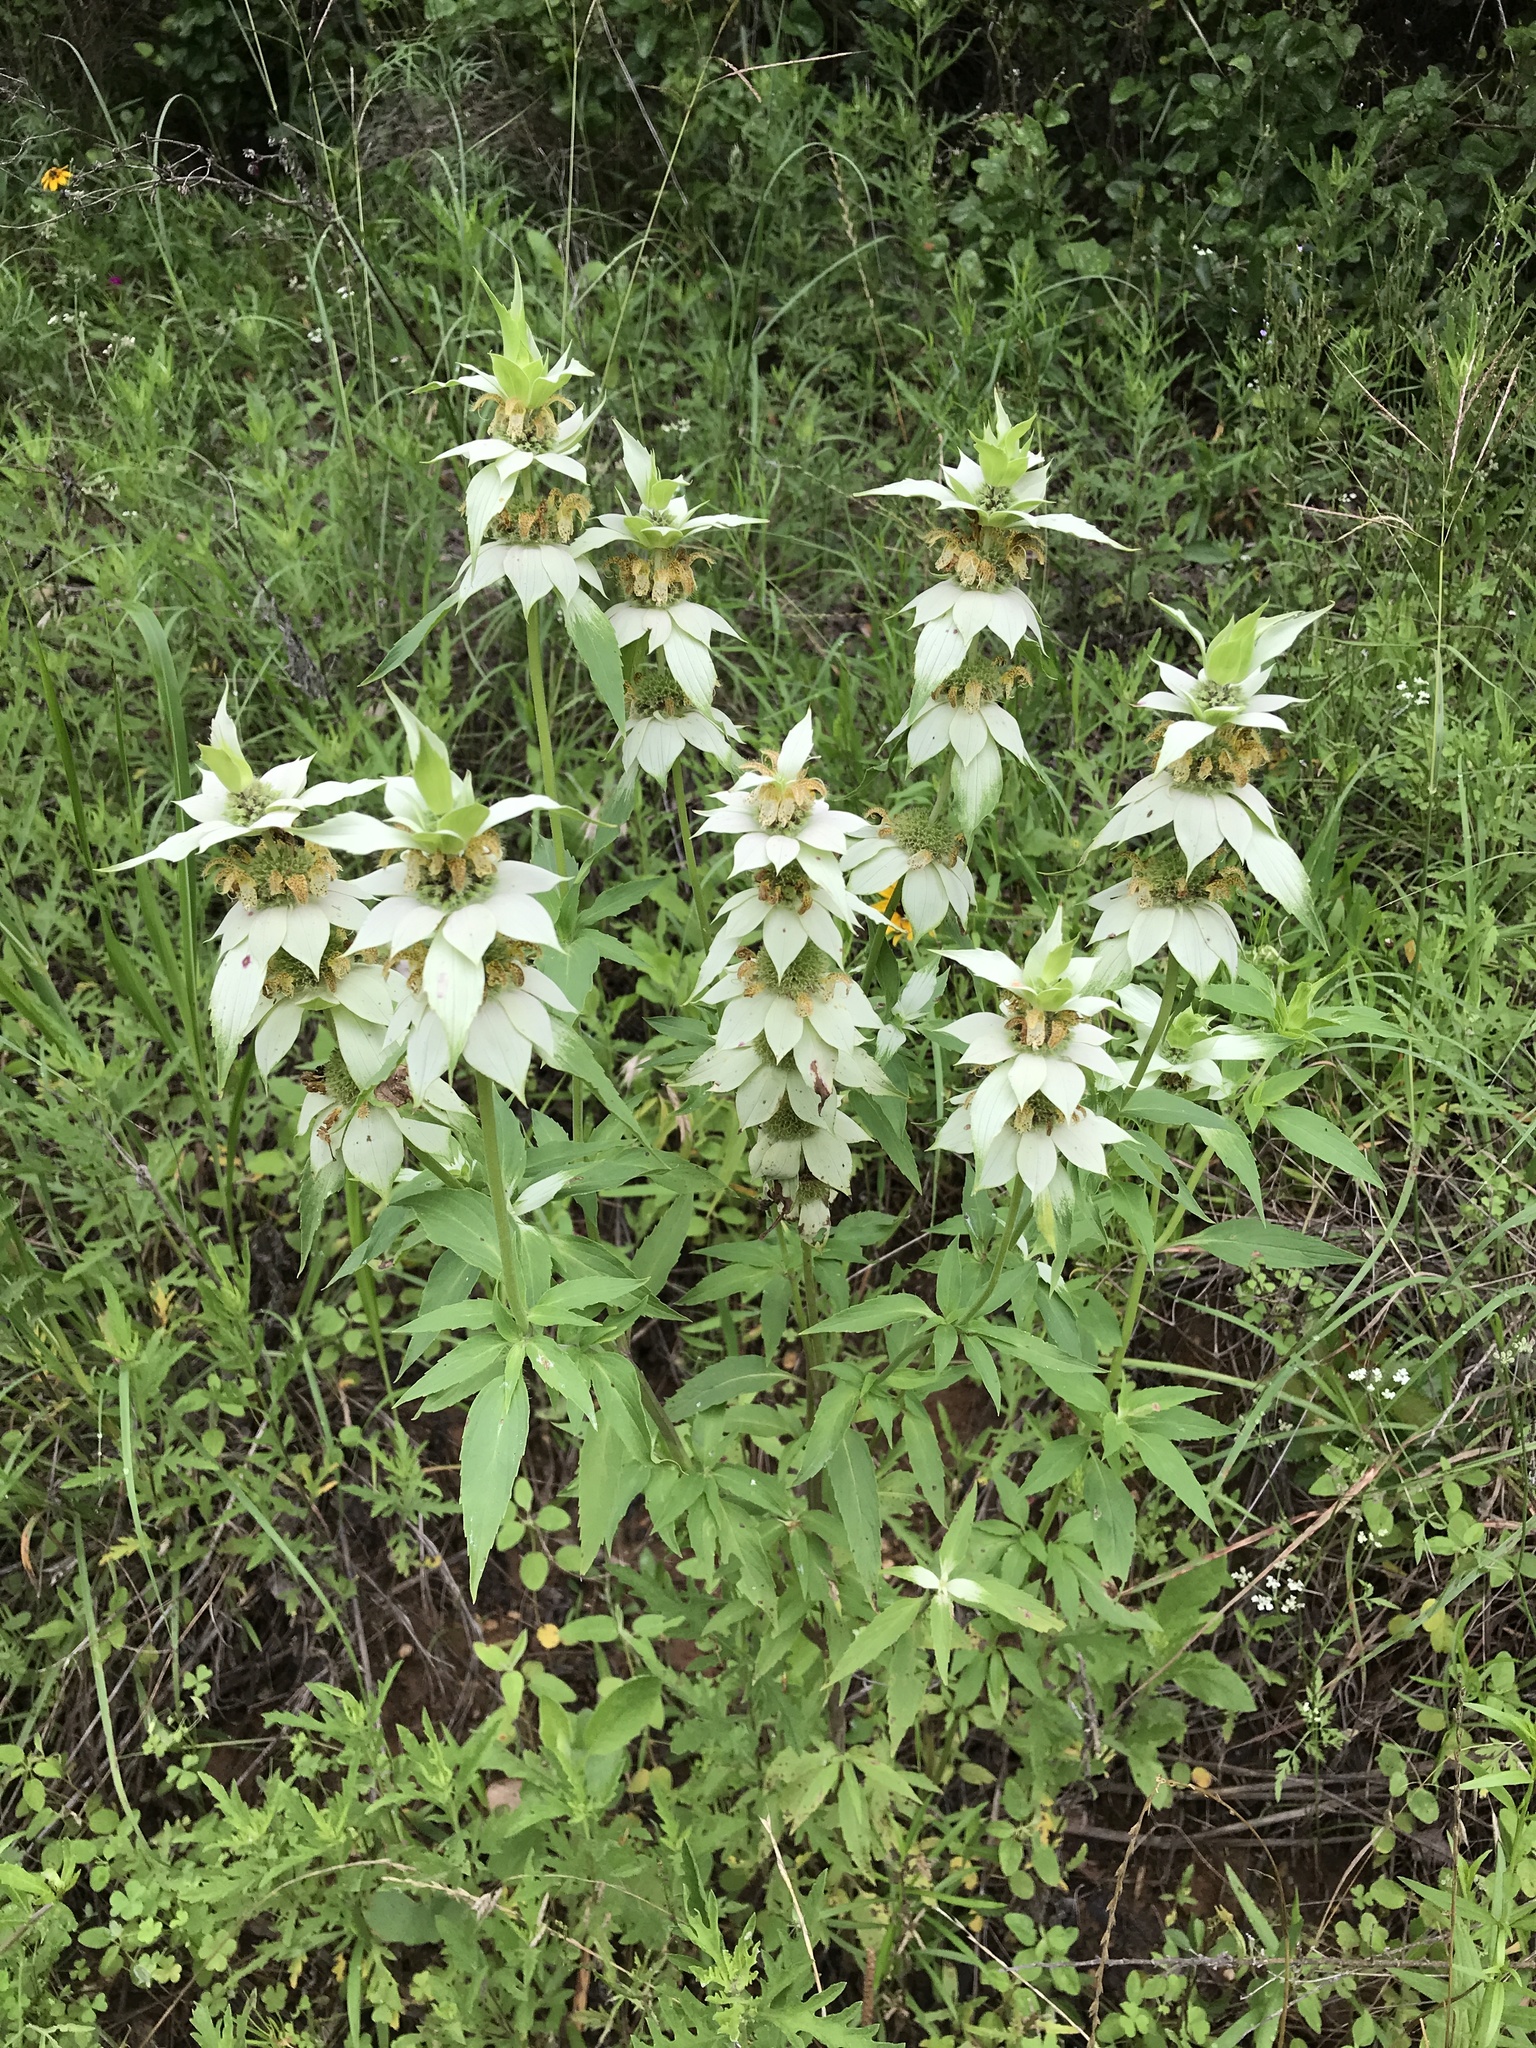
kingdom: Plantae
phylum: Tracheophyta
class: Magnoliopsida
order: Lamiales
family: Lamiaceae
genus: Monarda
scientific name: Monarda punctata
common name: Dotted monarda
